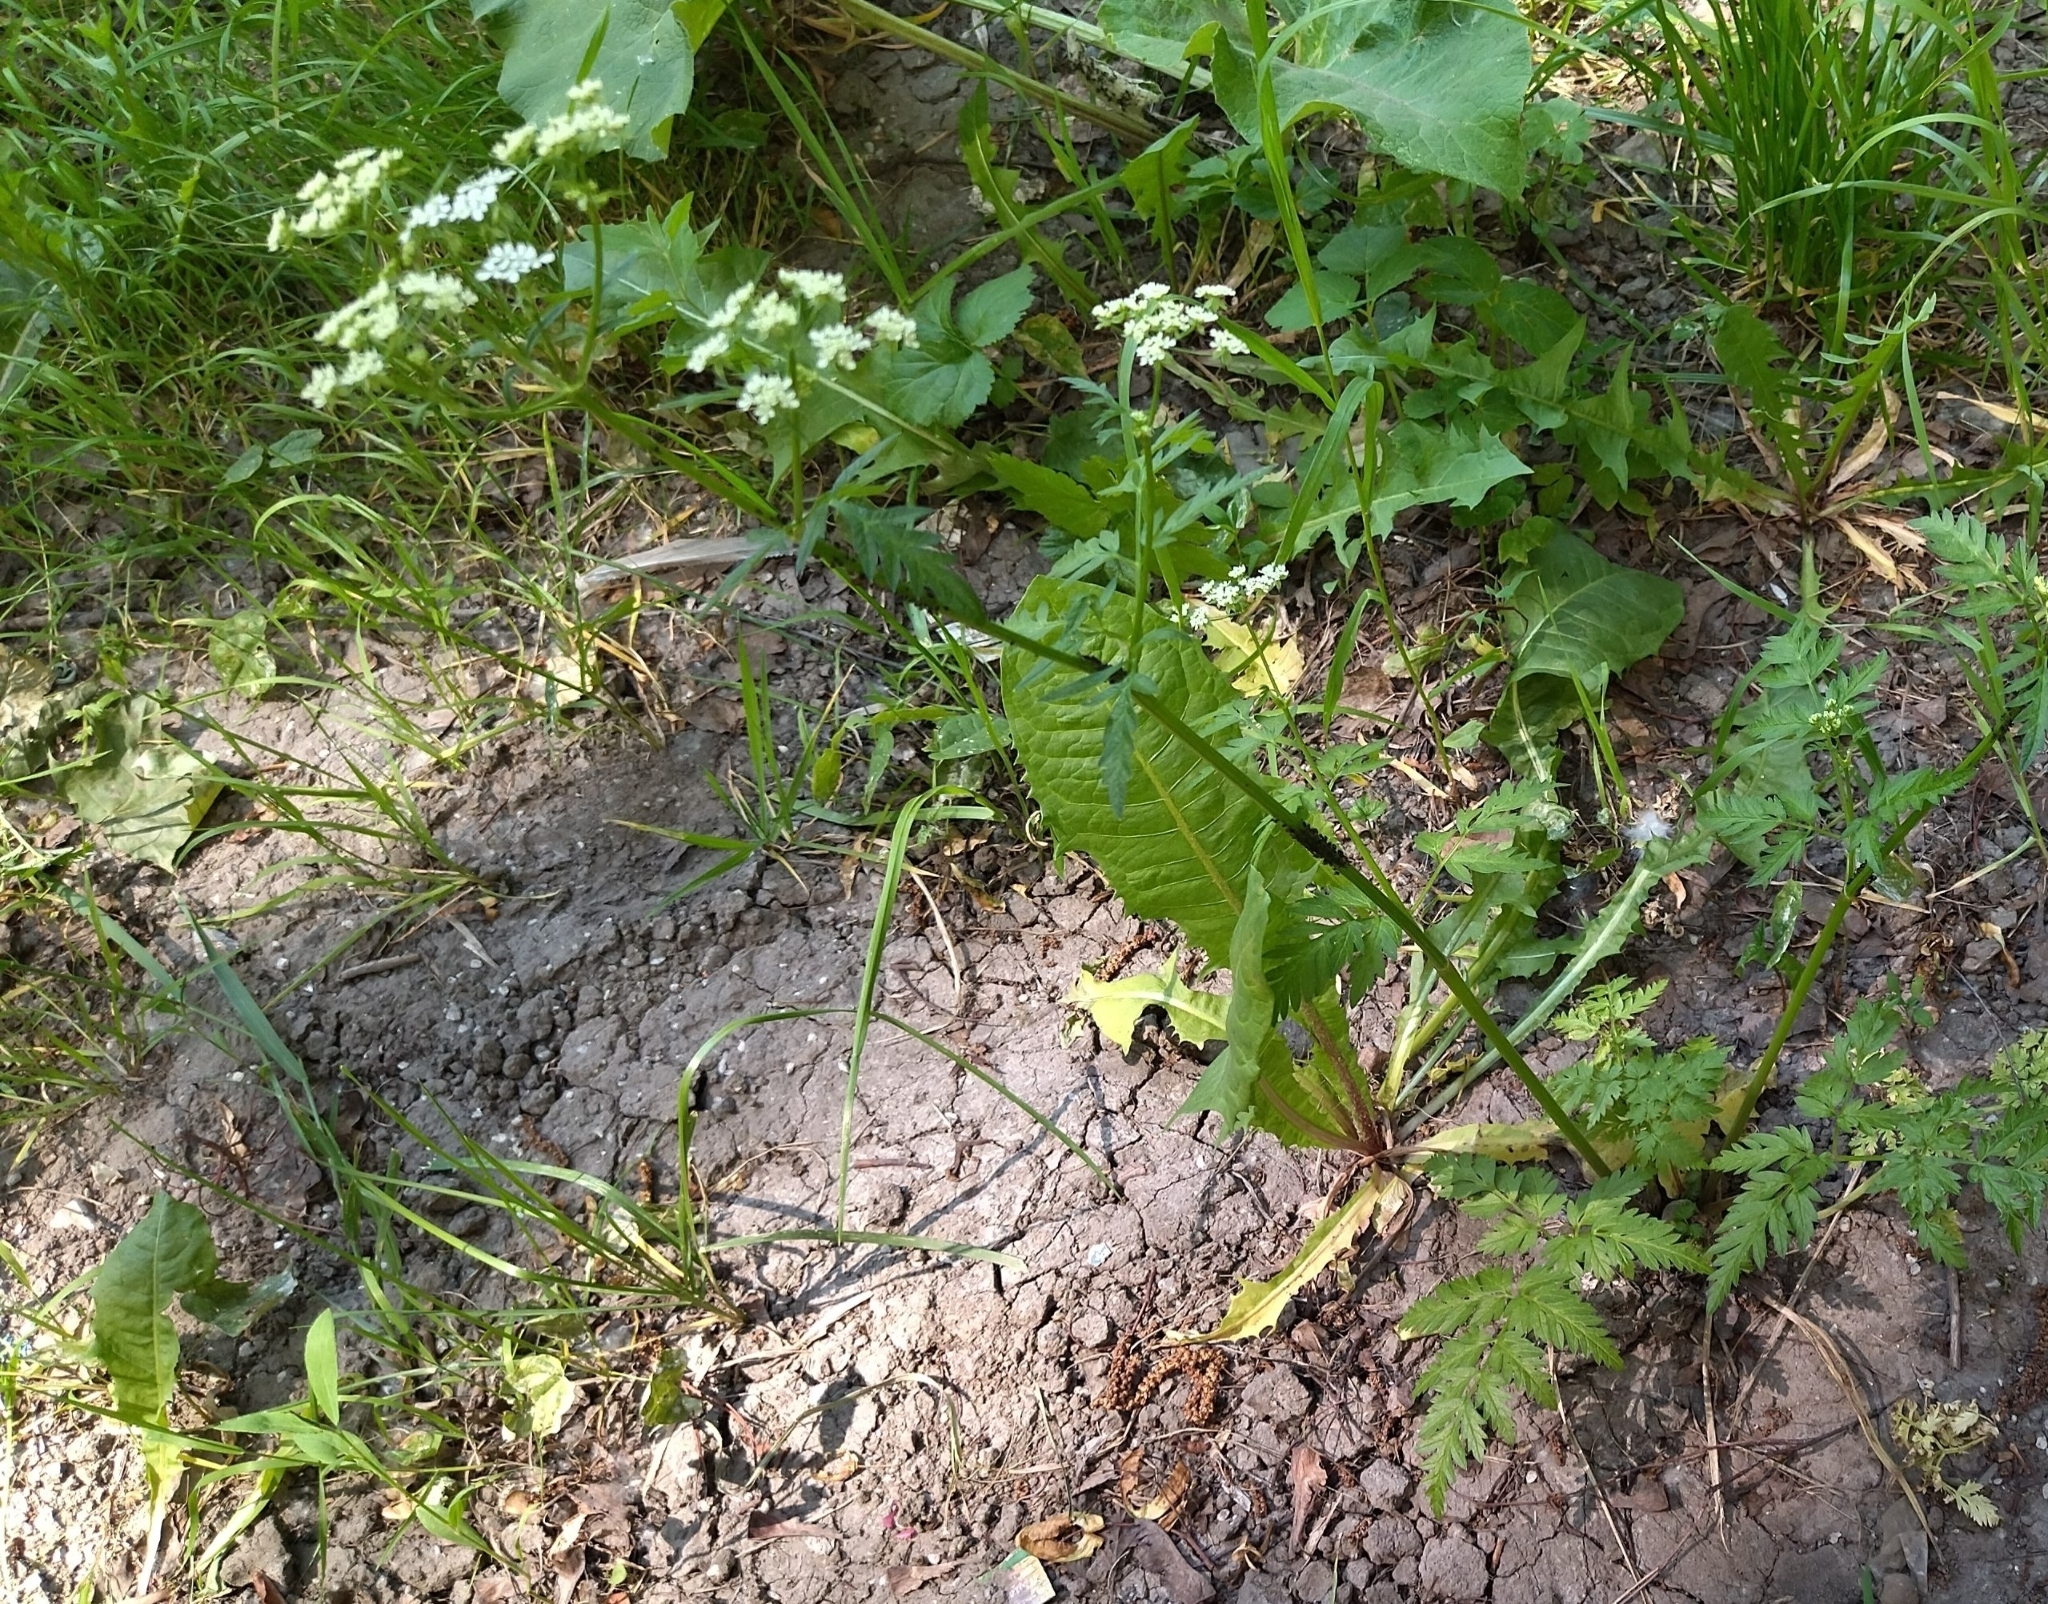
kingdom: Plantae
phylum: Tracheophyta
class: Magnoliopsida
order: Apiales
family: Apiaceae
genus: Anthriscus
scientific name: Anthriscus sylvestris
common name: Cow parsley
